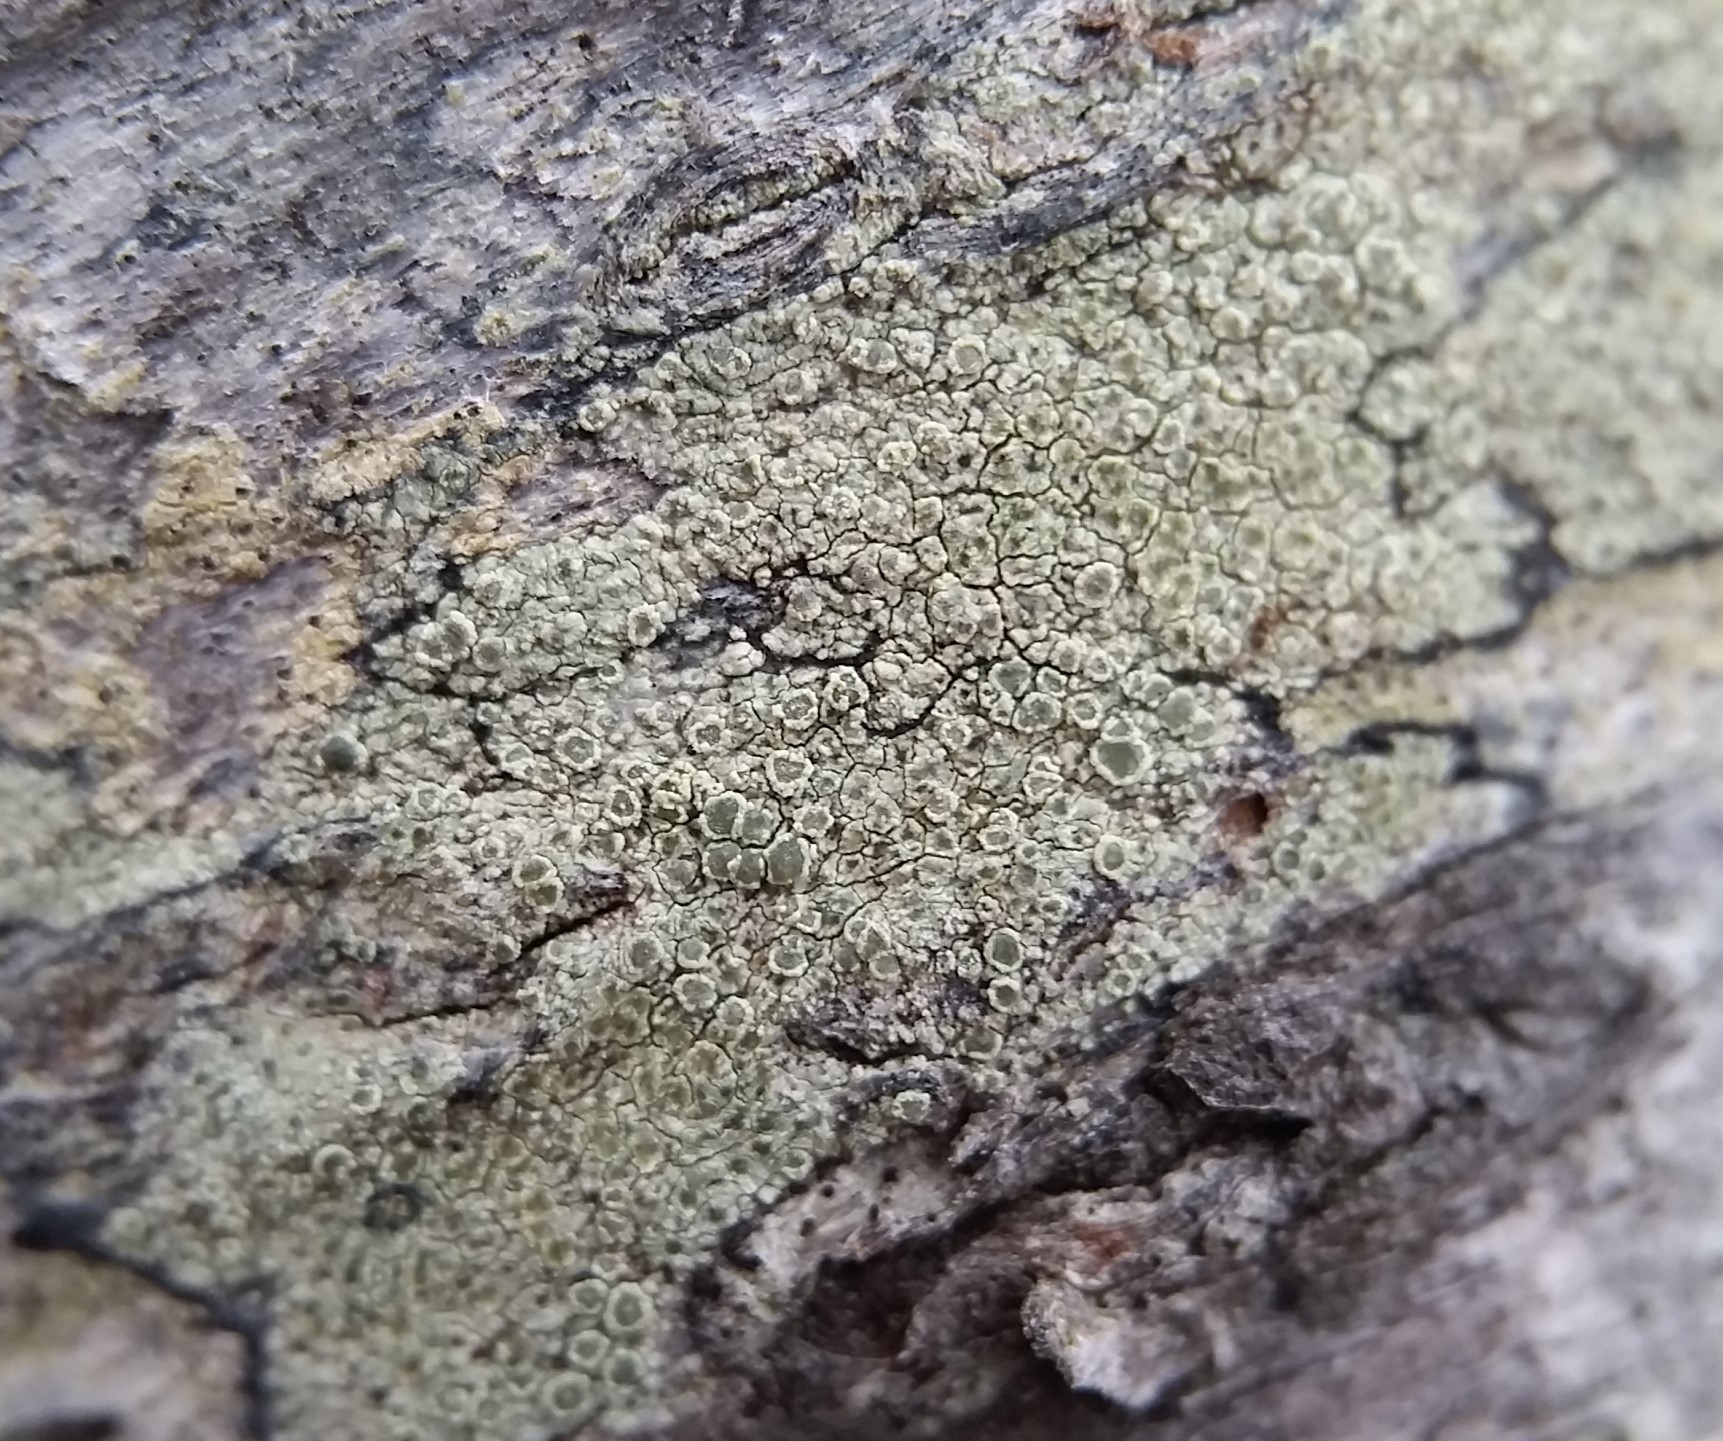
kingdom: Fungi
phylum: Ascomycota
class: Lecanoromycetes
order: Lecanorales
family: Lecanoraceae
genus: Lecanora
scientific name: Lecanora strobilina
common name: Mealy rim-lichen
